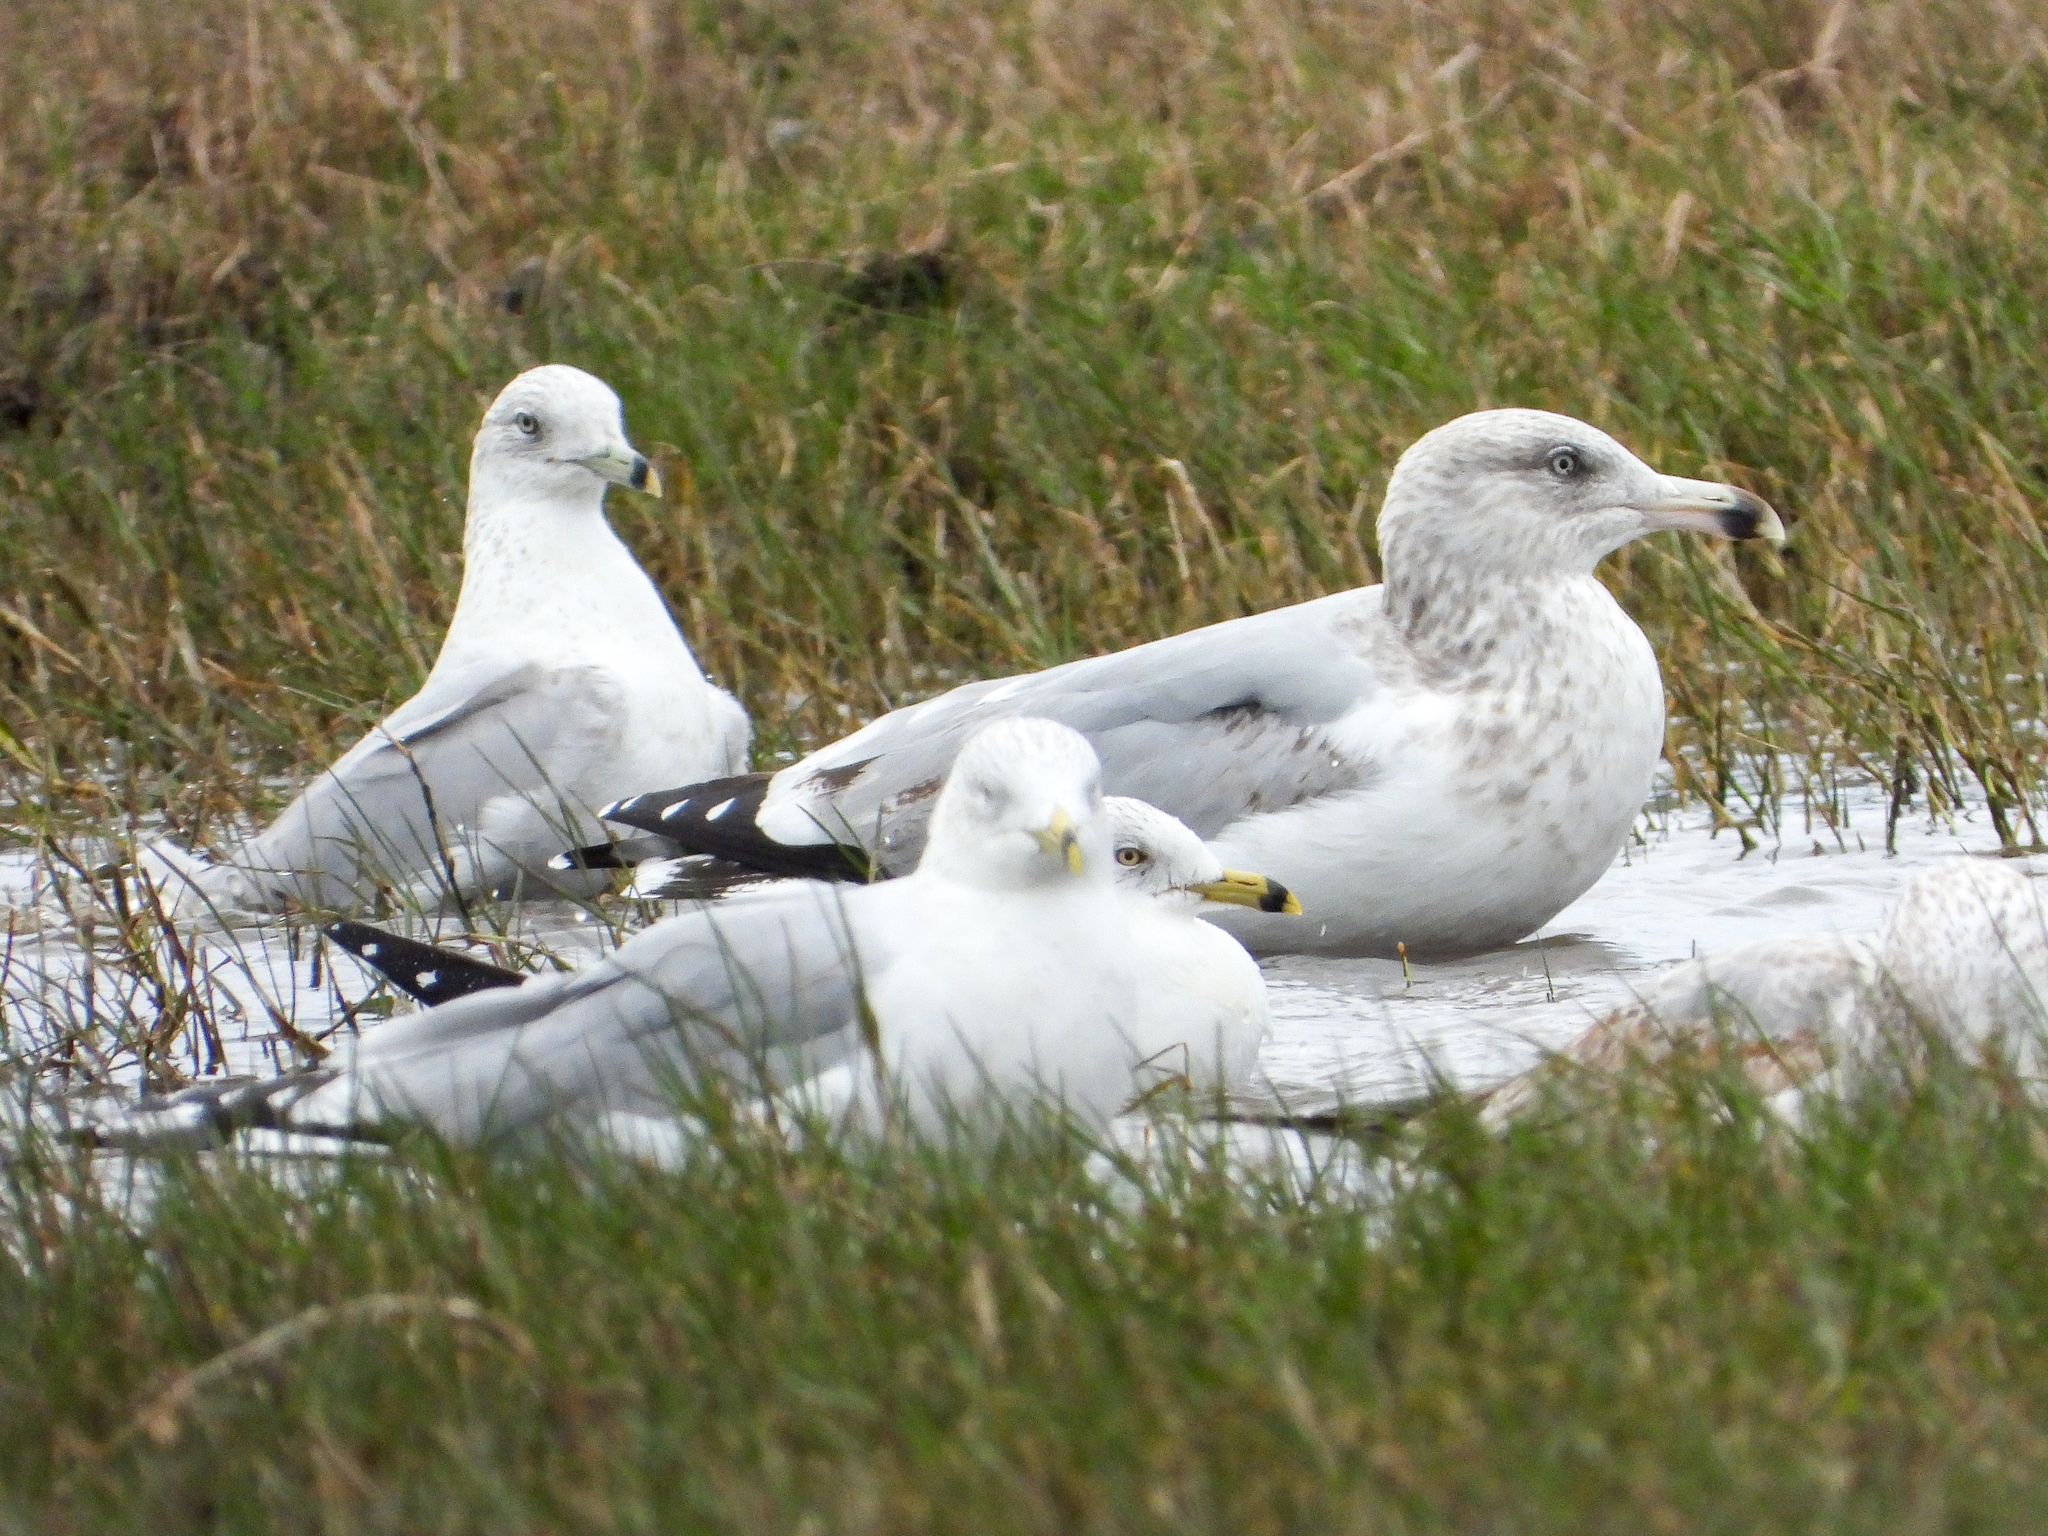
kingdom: Animalia
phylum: Chordata
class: Aves
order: Charadriiformes
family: Laridae
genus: Larus
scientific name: Larus argentatus
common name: Herring gull
